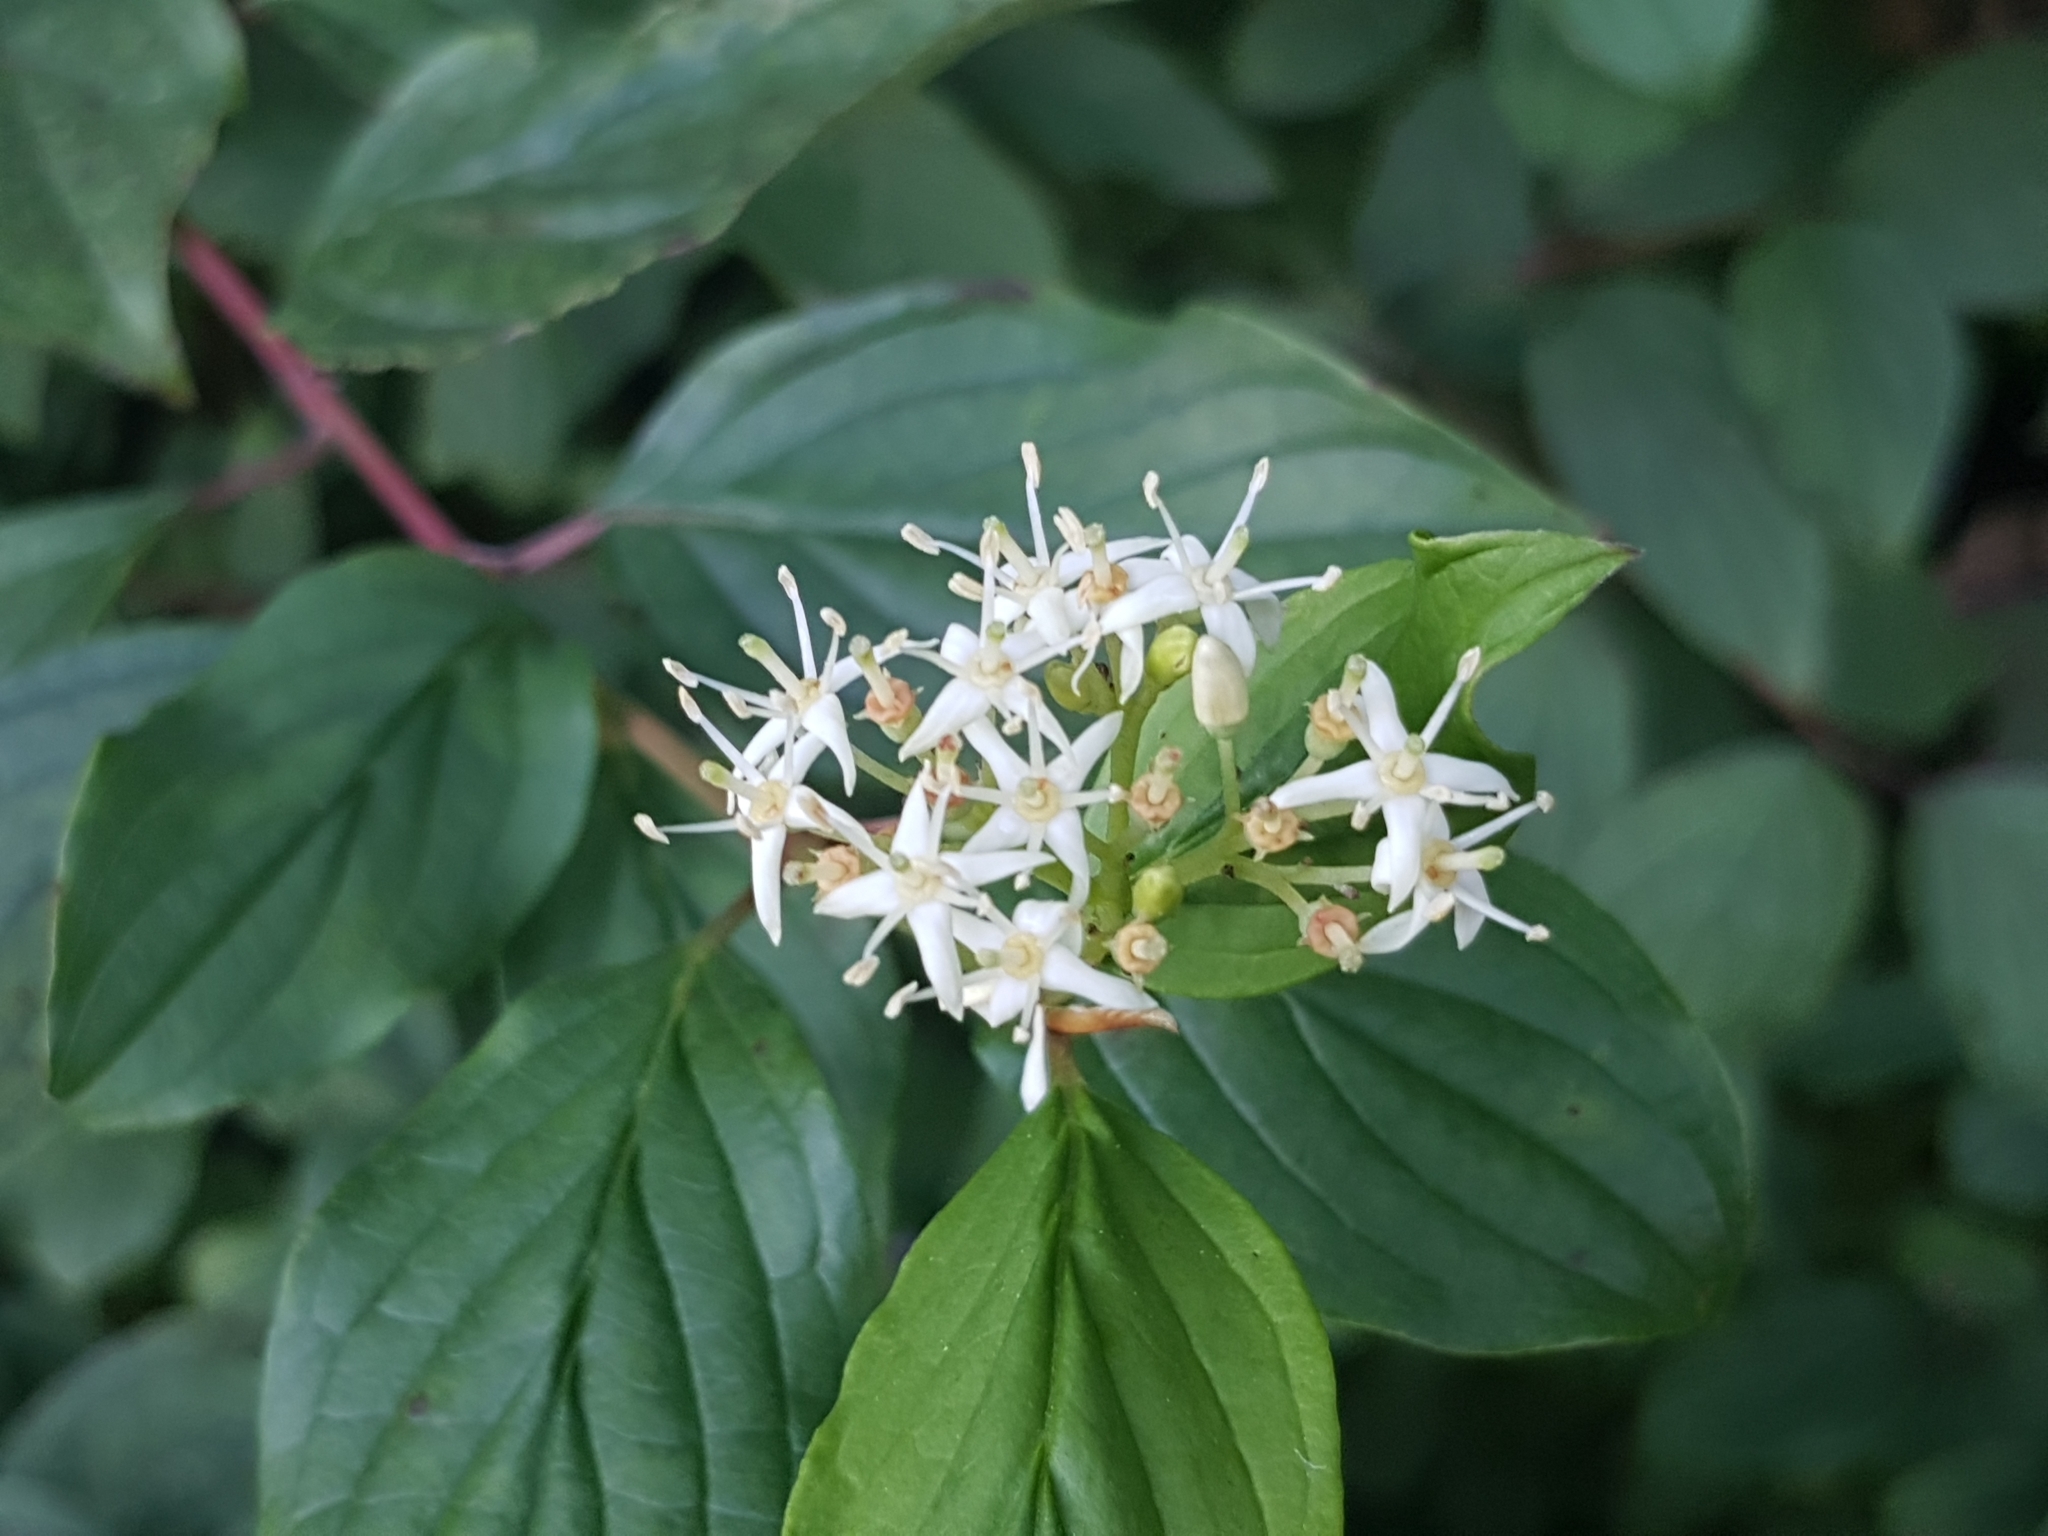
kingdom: Plantae
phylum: Tracheophyta
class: Magnoliopsida
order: Cornales
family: Cornaceae
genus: Cornus
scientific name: Cornus sanguinea
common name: Dogwood
